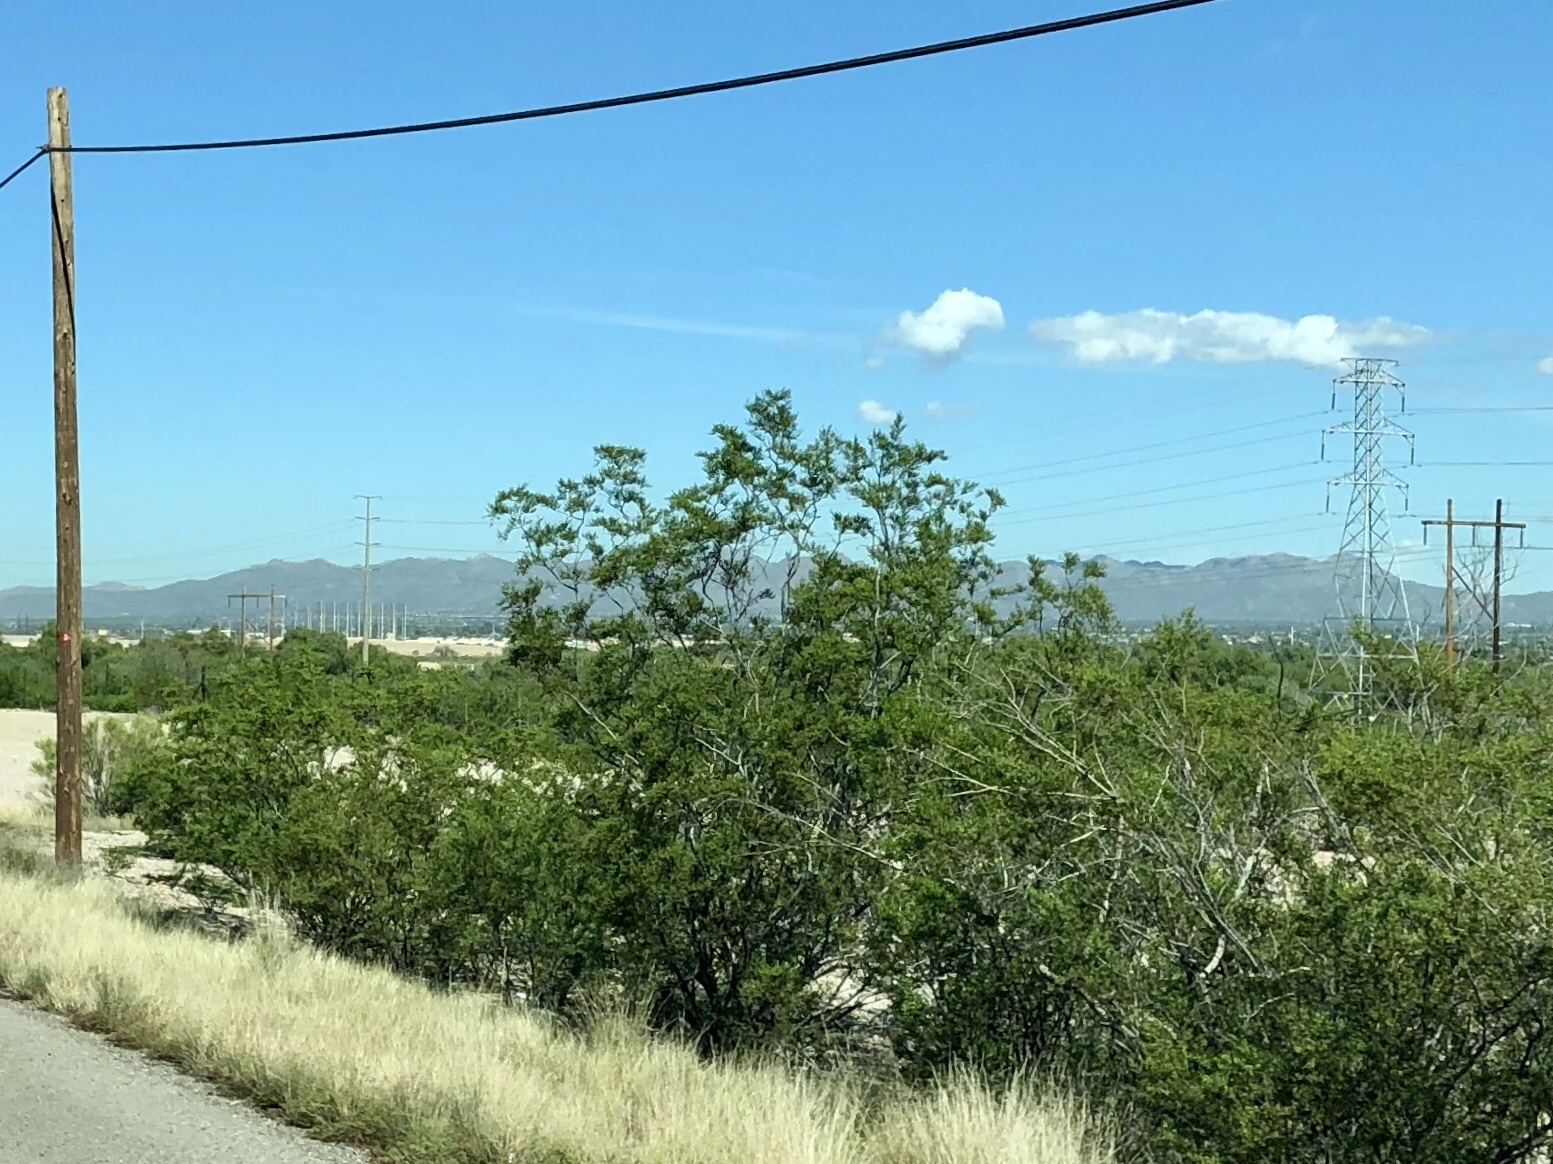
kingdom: Plantae
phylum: Tracheophyta
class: Magnoliopsida
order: Zygophyllales
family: Zygophyllaceae
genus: Larrea
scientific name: Larrea tridentata
